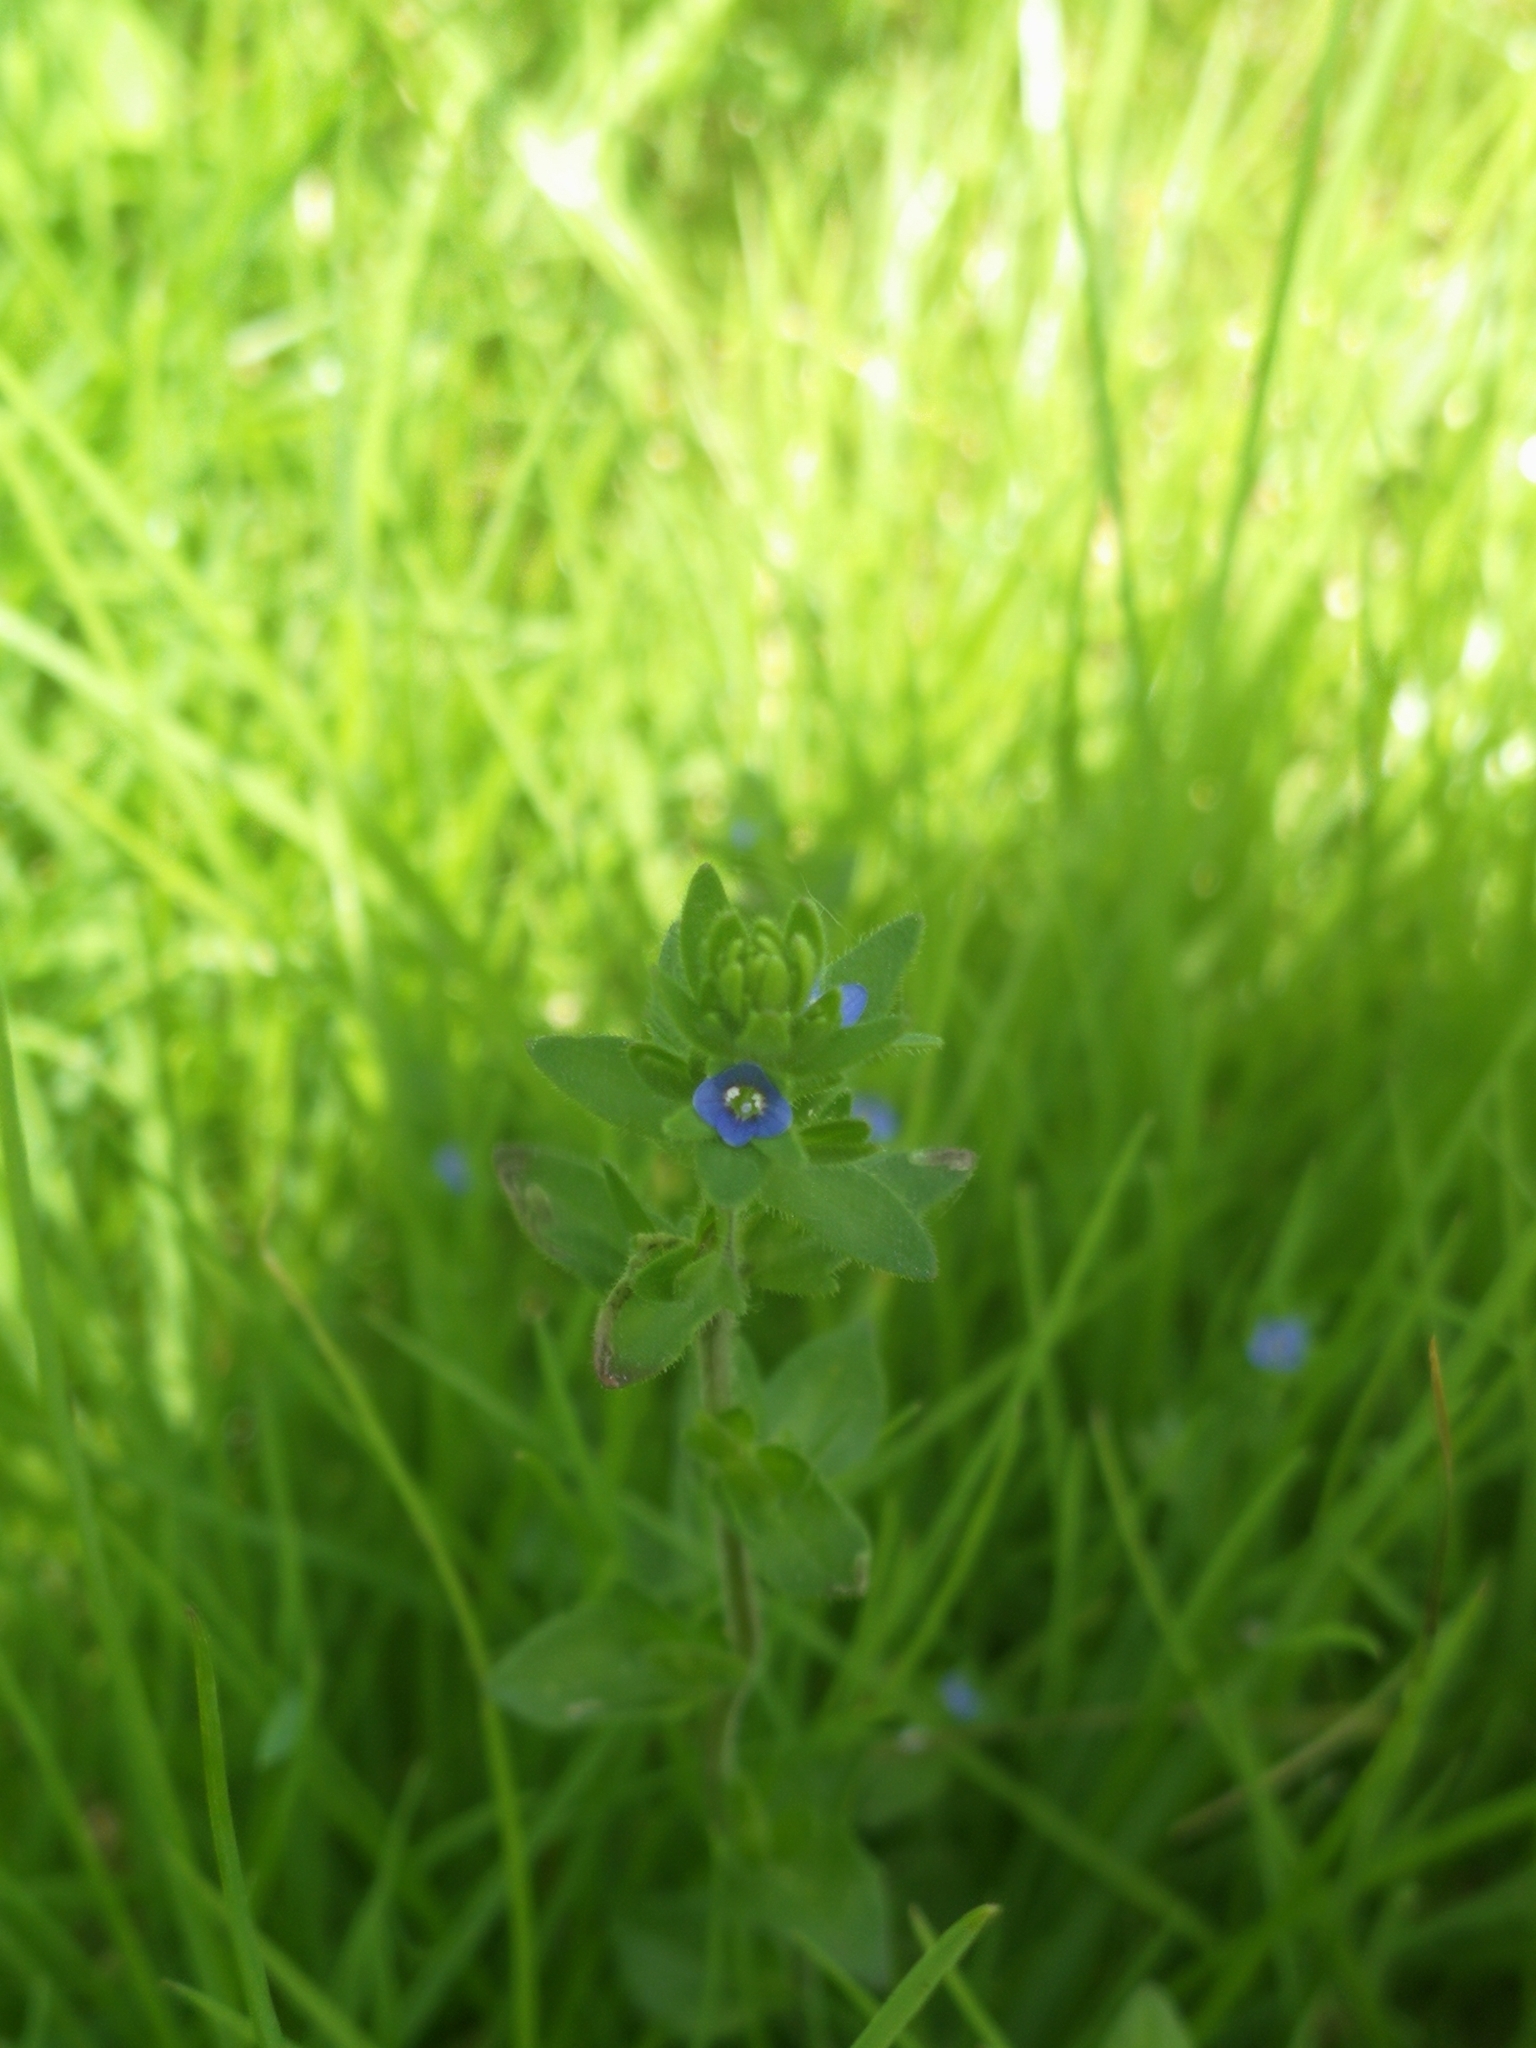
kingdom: Plantae
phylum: Tracheophyta
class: Magnoliopsida
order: Lamiales
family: Plantaginaceae
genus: Veronica
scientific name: Veronica arvensis
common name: Corn speedwell
